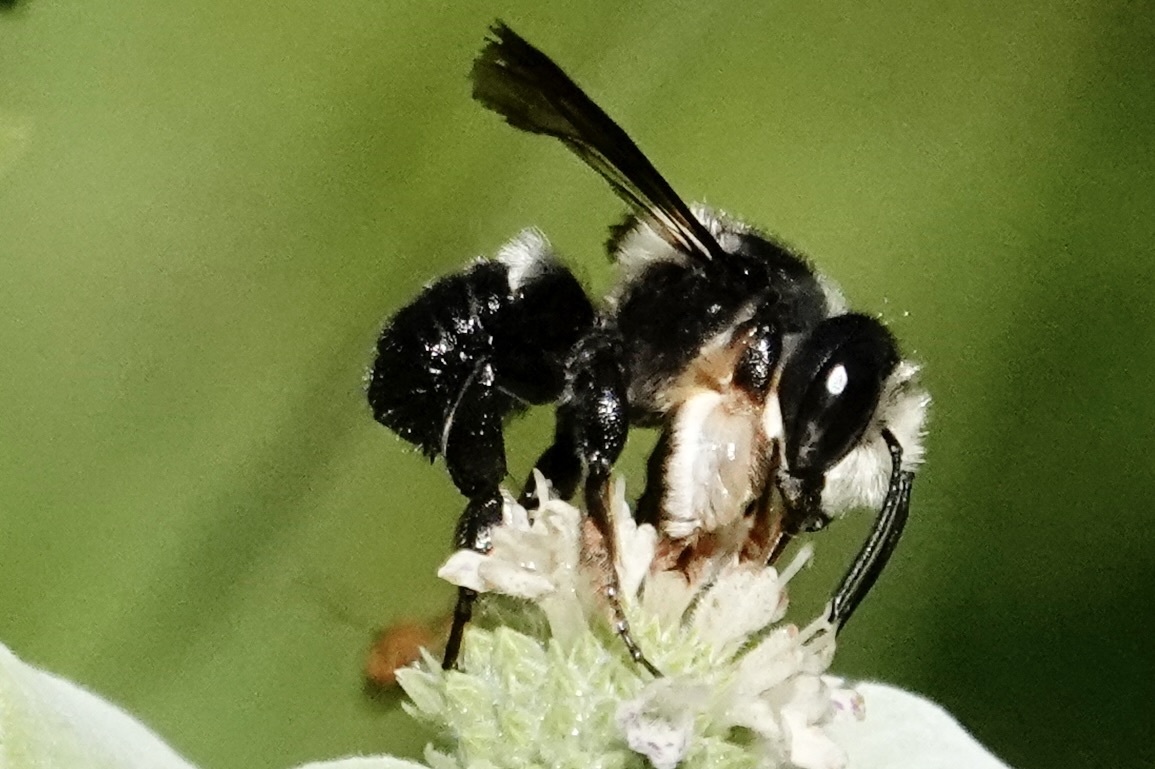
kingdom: Animalia
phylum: Arthropoda
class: Insecta
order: Hymenoptera
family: Megachilidae
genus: Megachile
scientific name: Megachile xylocopoides
